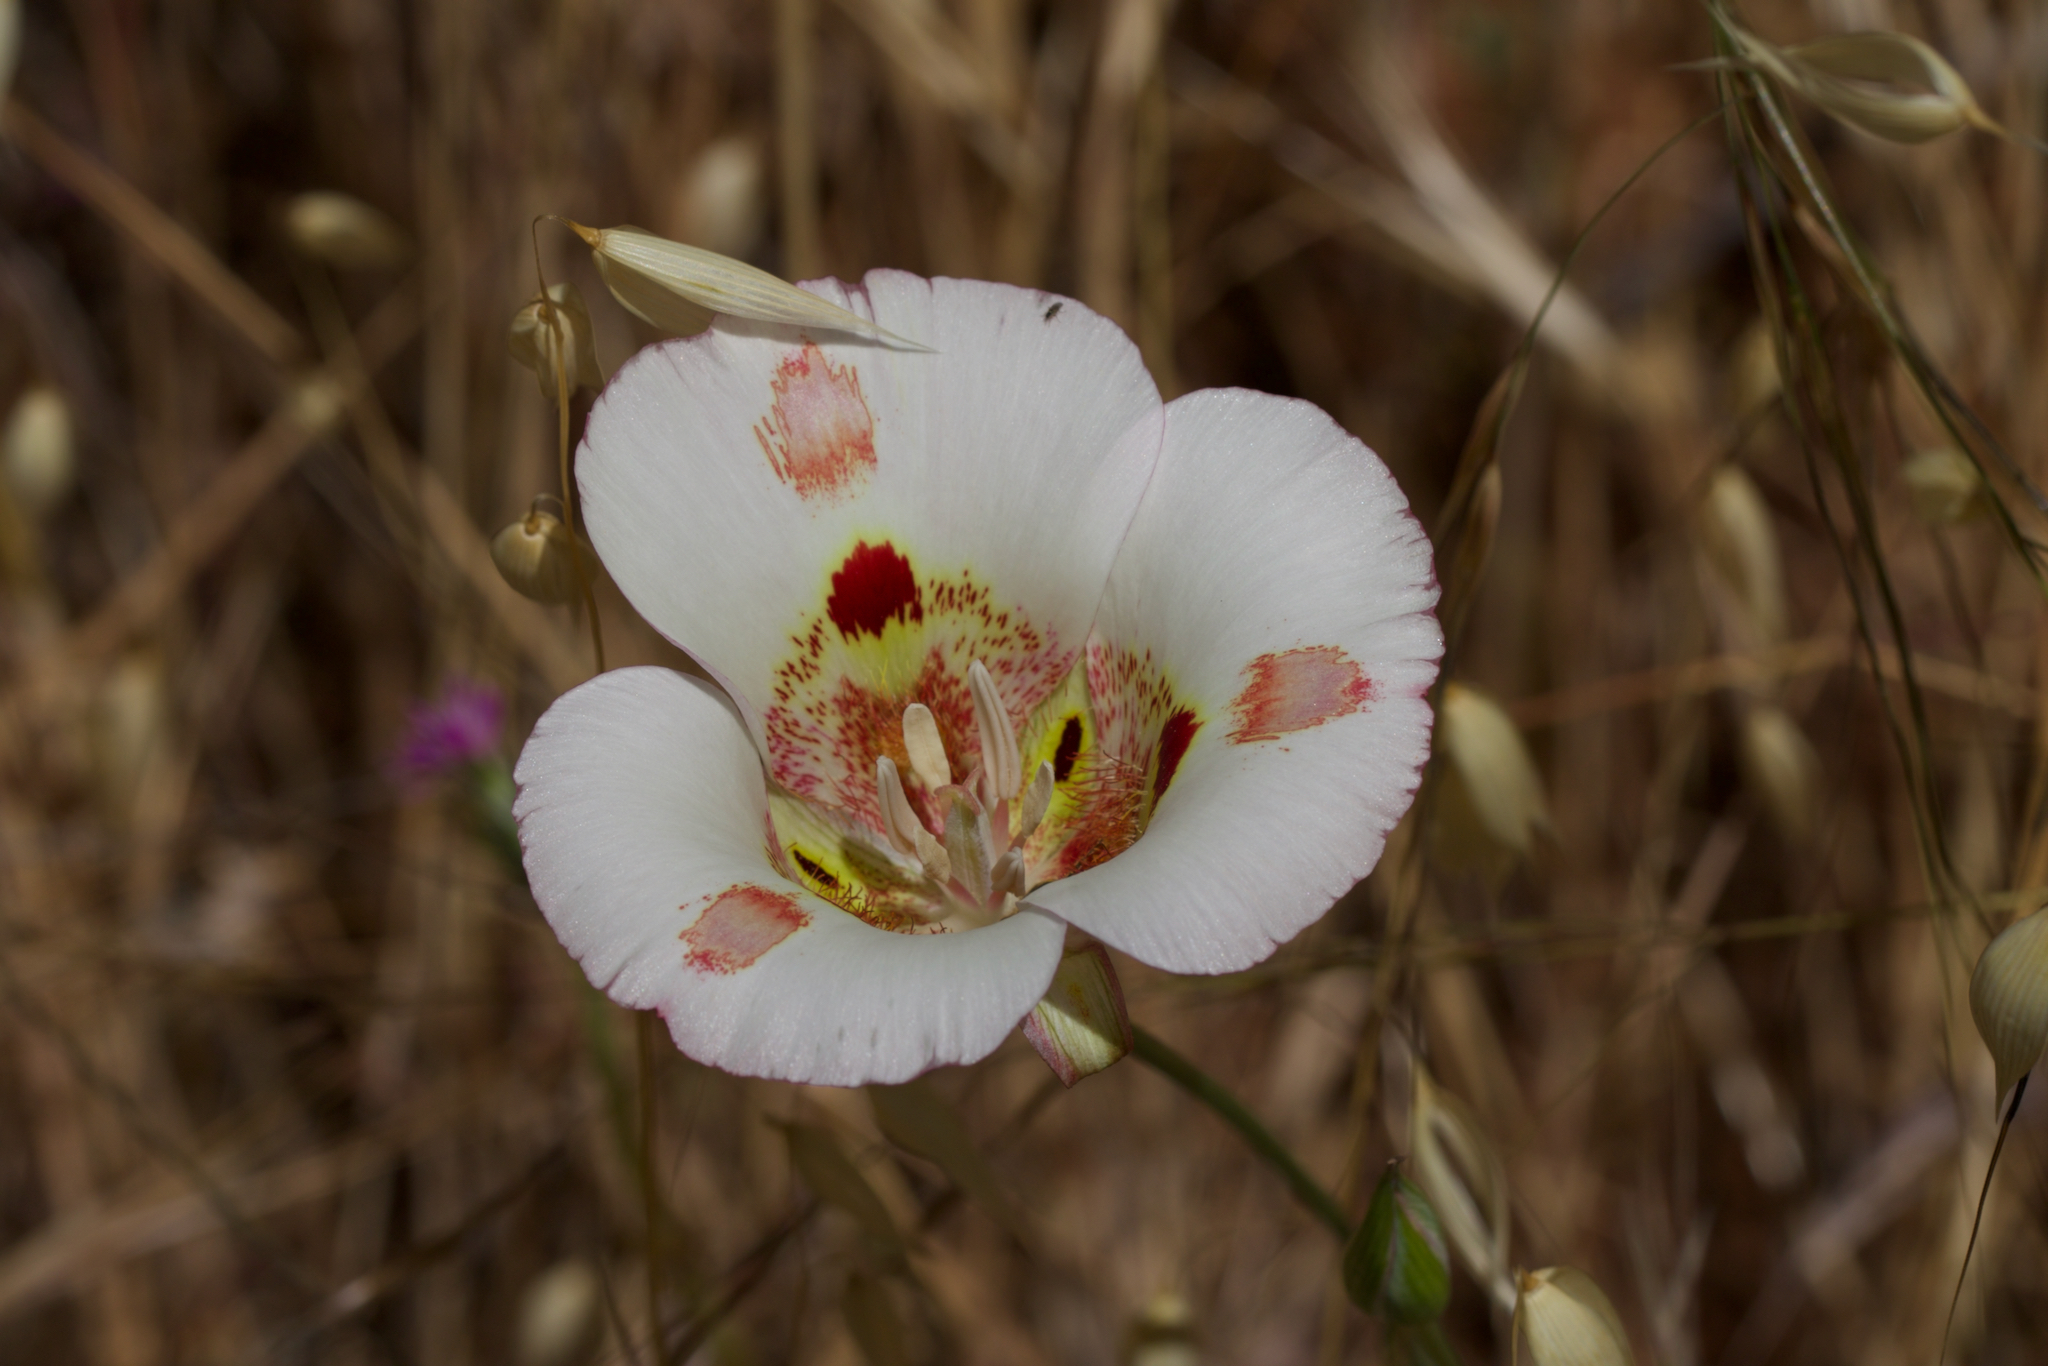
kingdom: Plantae
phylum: Tracheophyta
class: Liliopsida
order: Liliales
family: Liliaceae
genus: Calochortus
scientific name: Calochortus venustus
